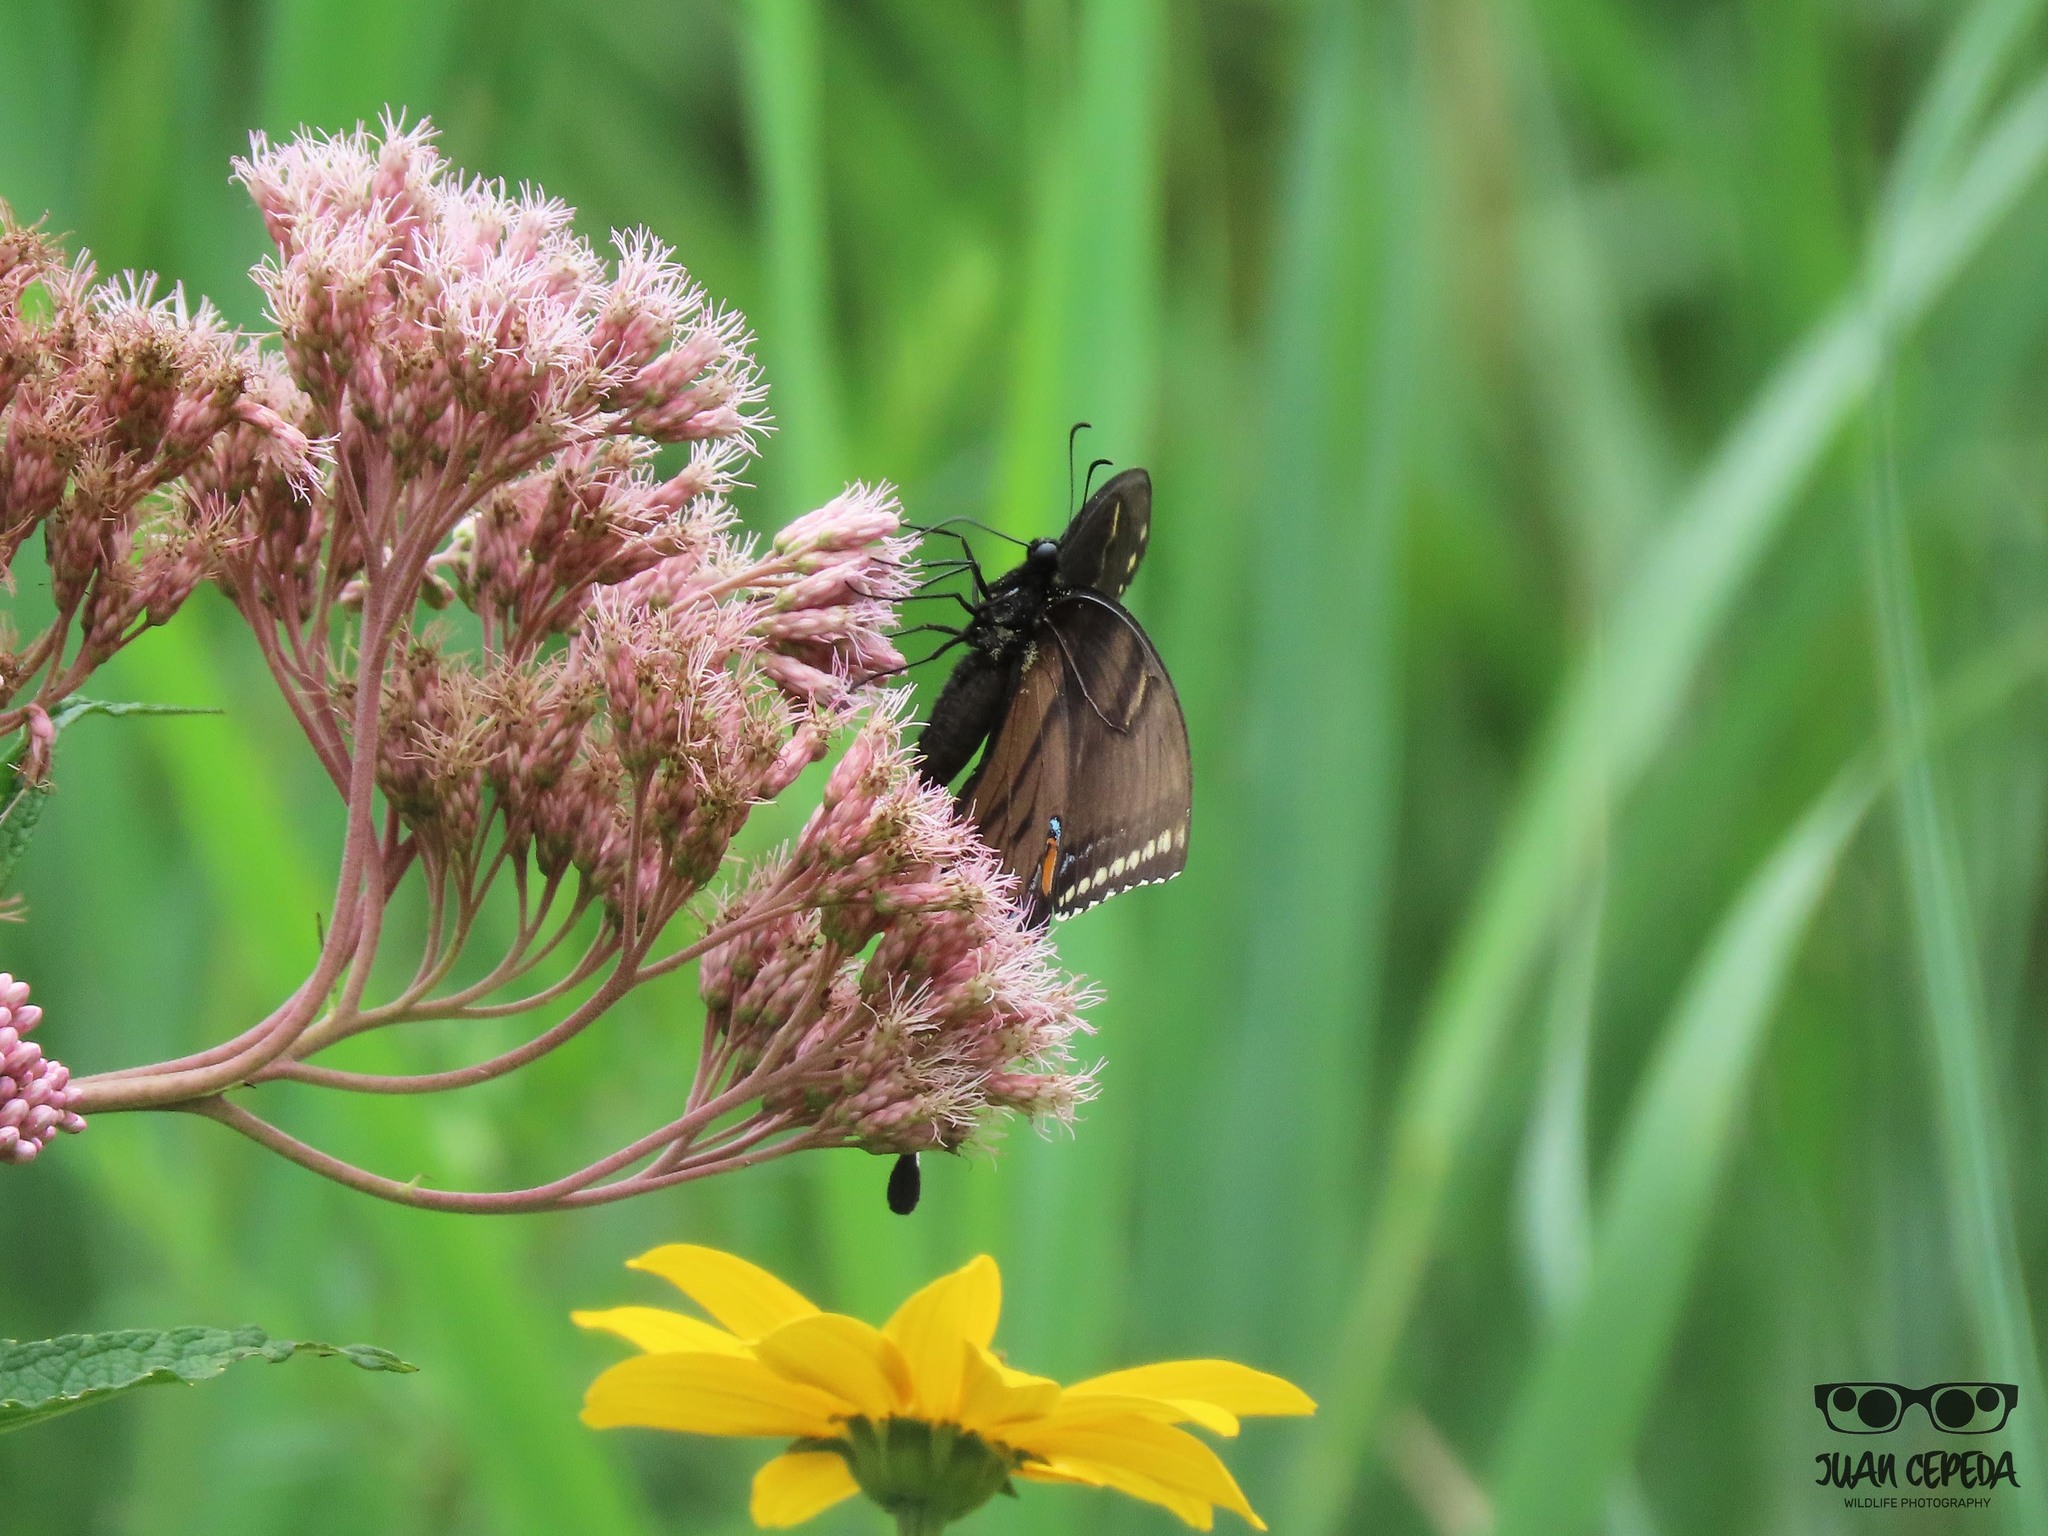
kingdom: Animalia
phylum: Arthropoda
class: Insecta
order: Lepidoptera
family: Papilionidae
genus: Papilio
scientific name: Papilio glaucus
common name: Tiger swallowtail
